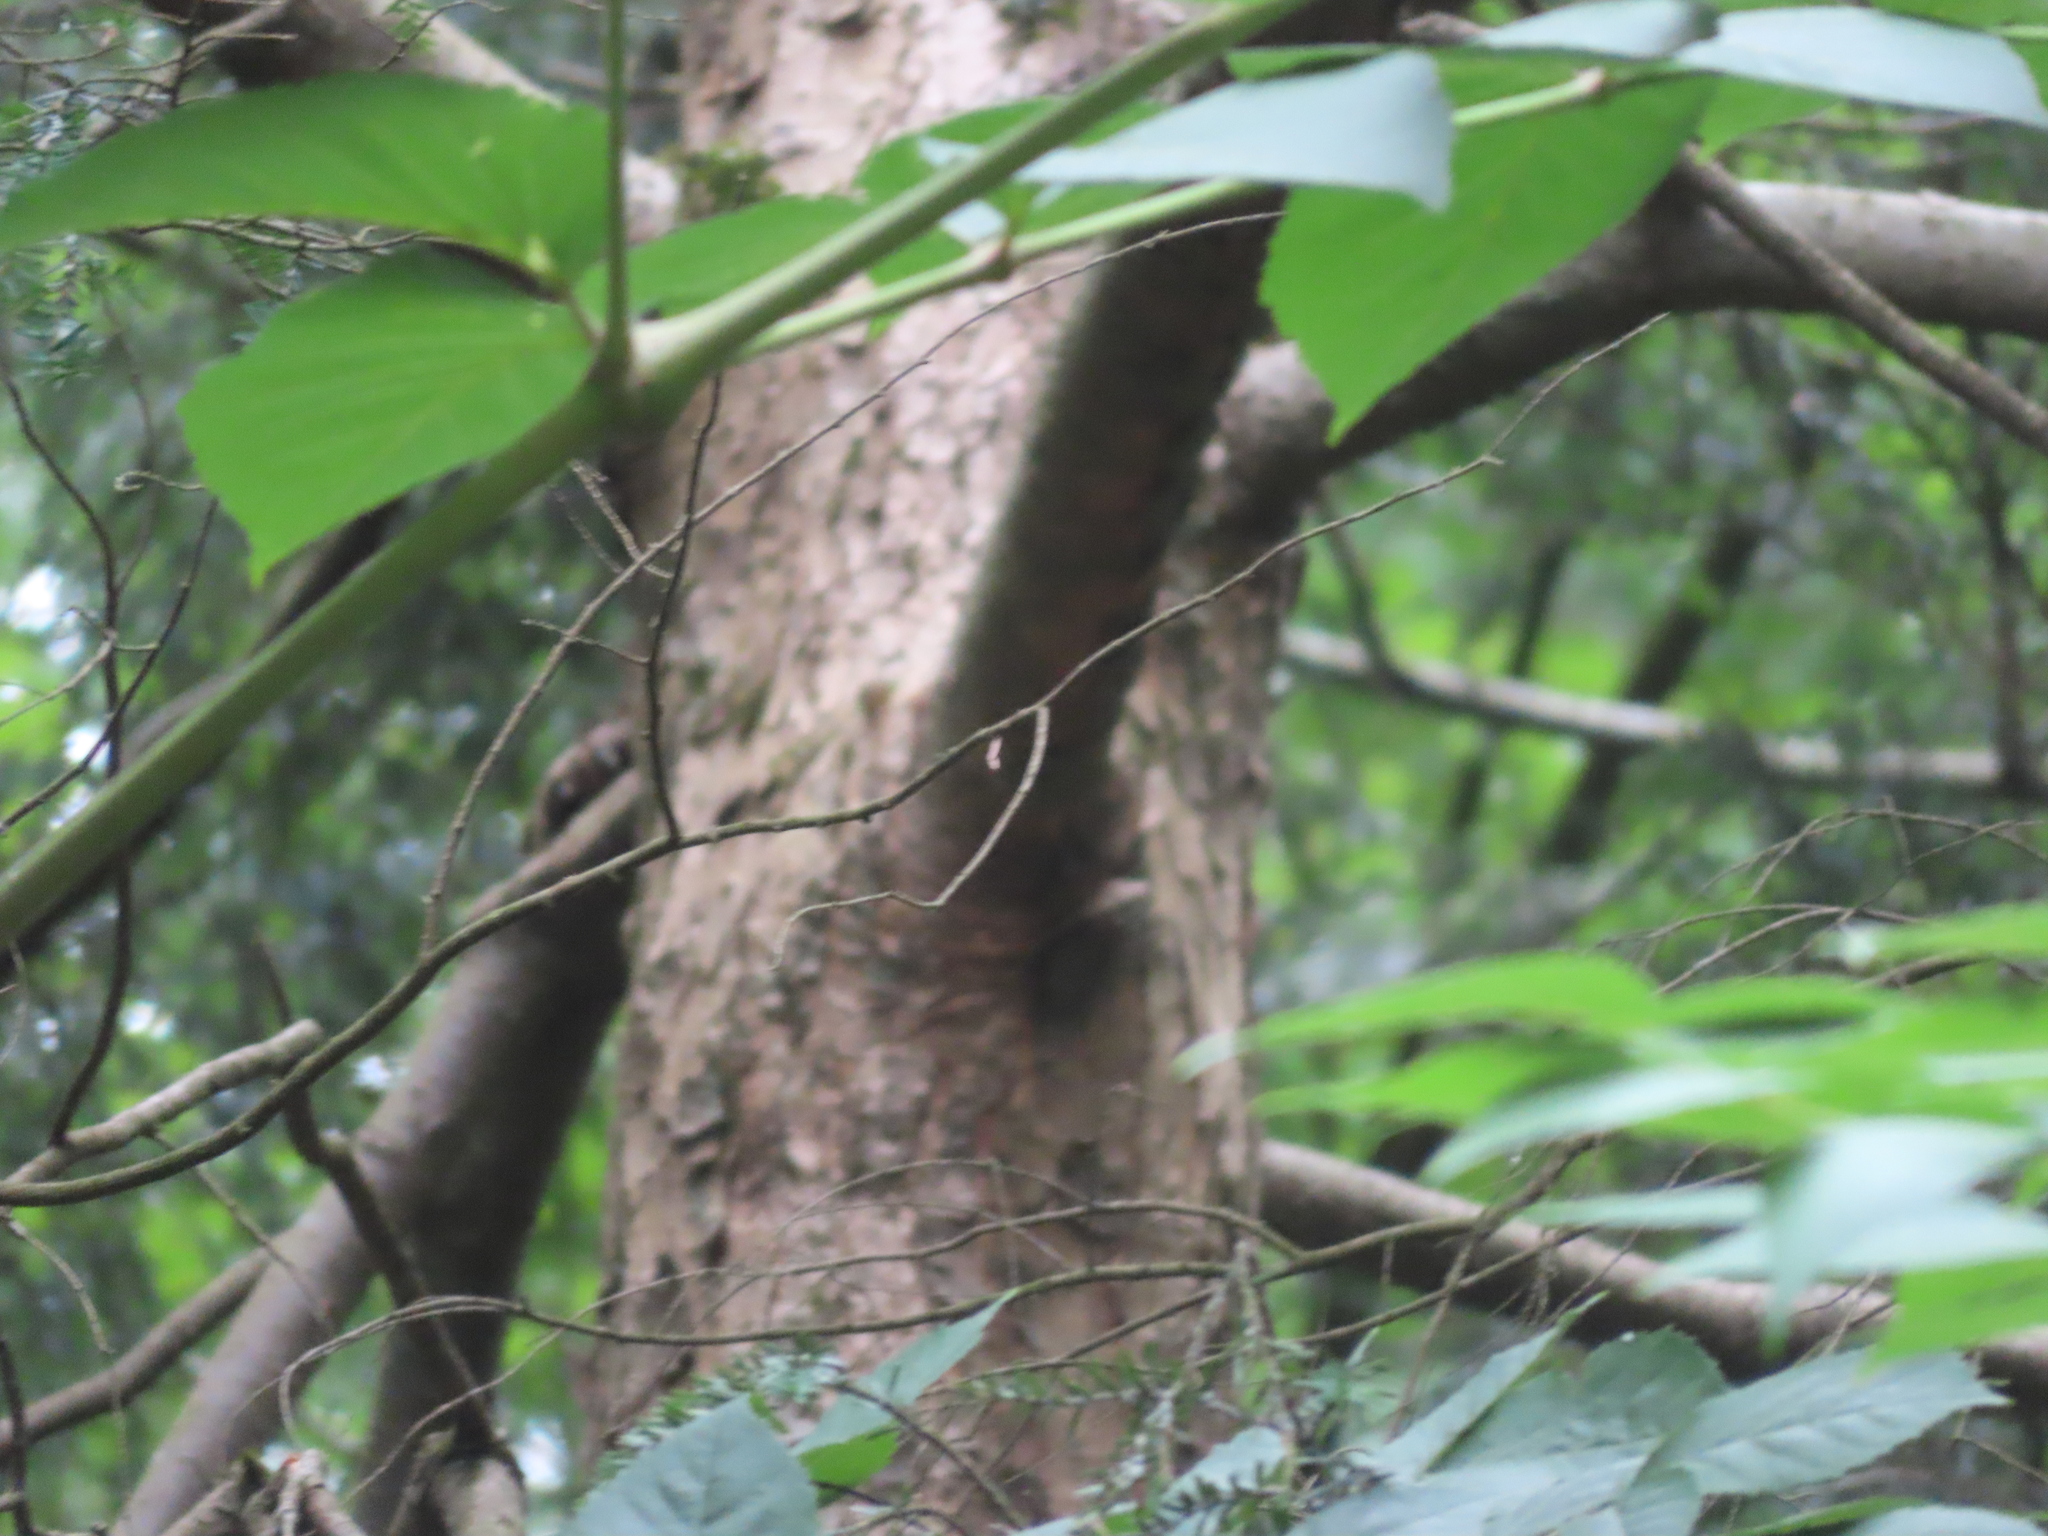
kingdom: Plantae
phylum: Tracheophyta
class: Magnoliopsida
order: Apiales
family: Araliaceae
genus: Aralia
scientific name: Aralia elata
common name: Japanese angelica-tree
